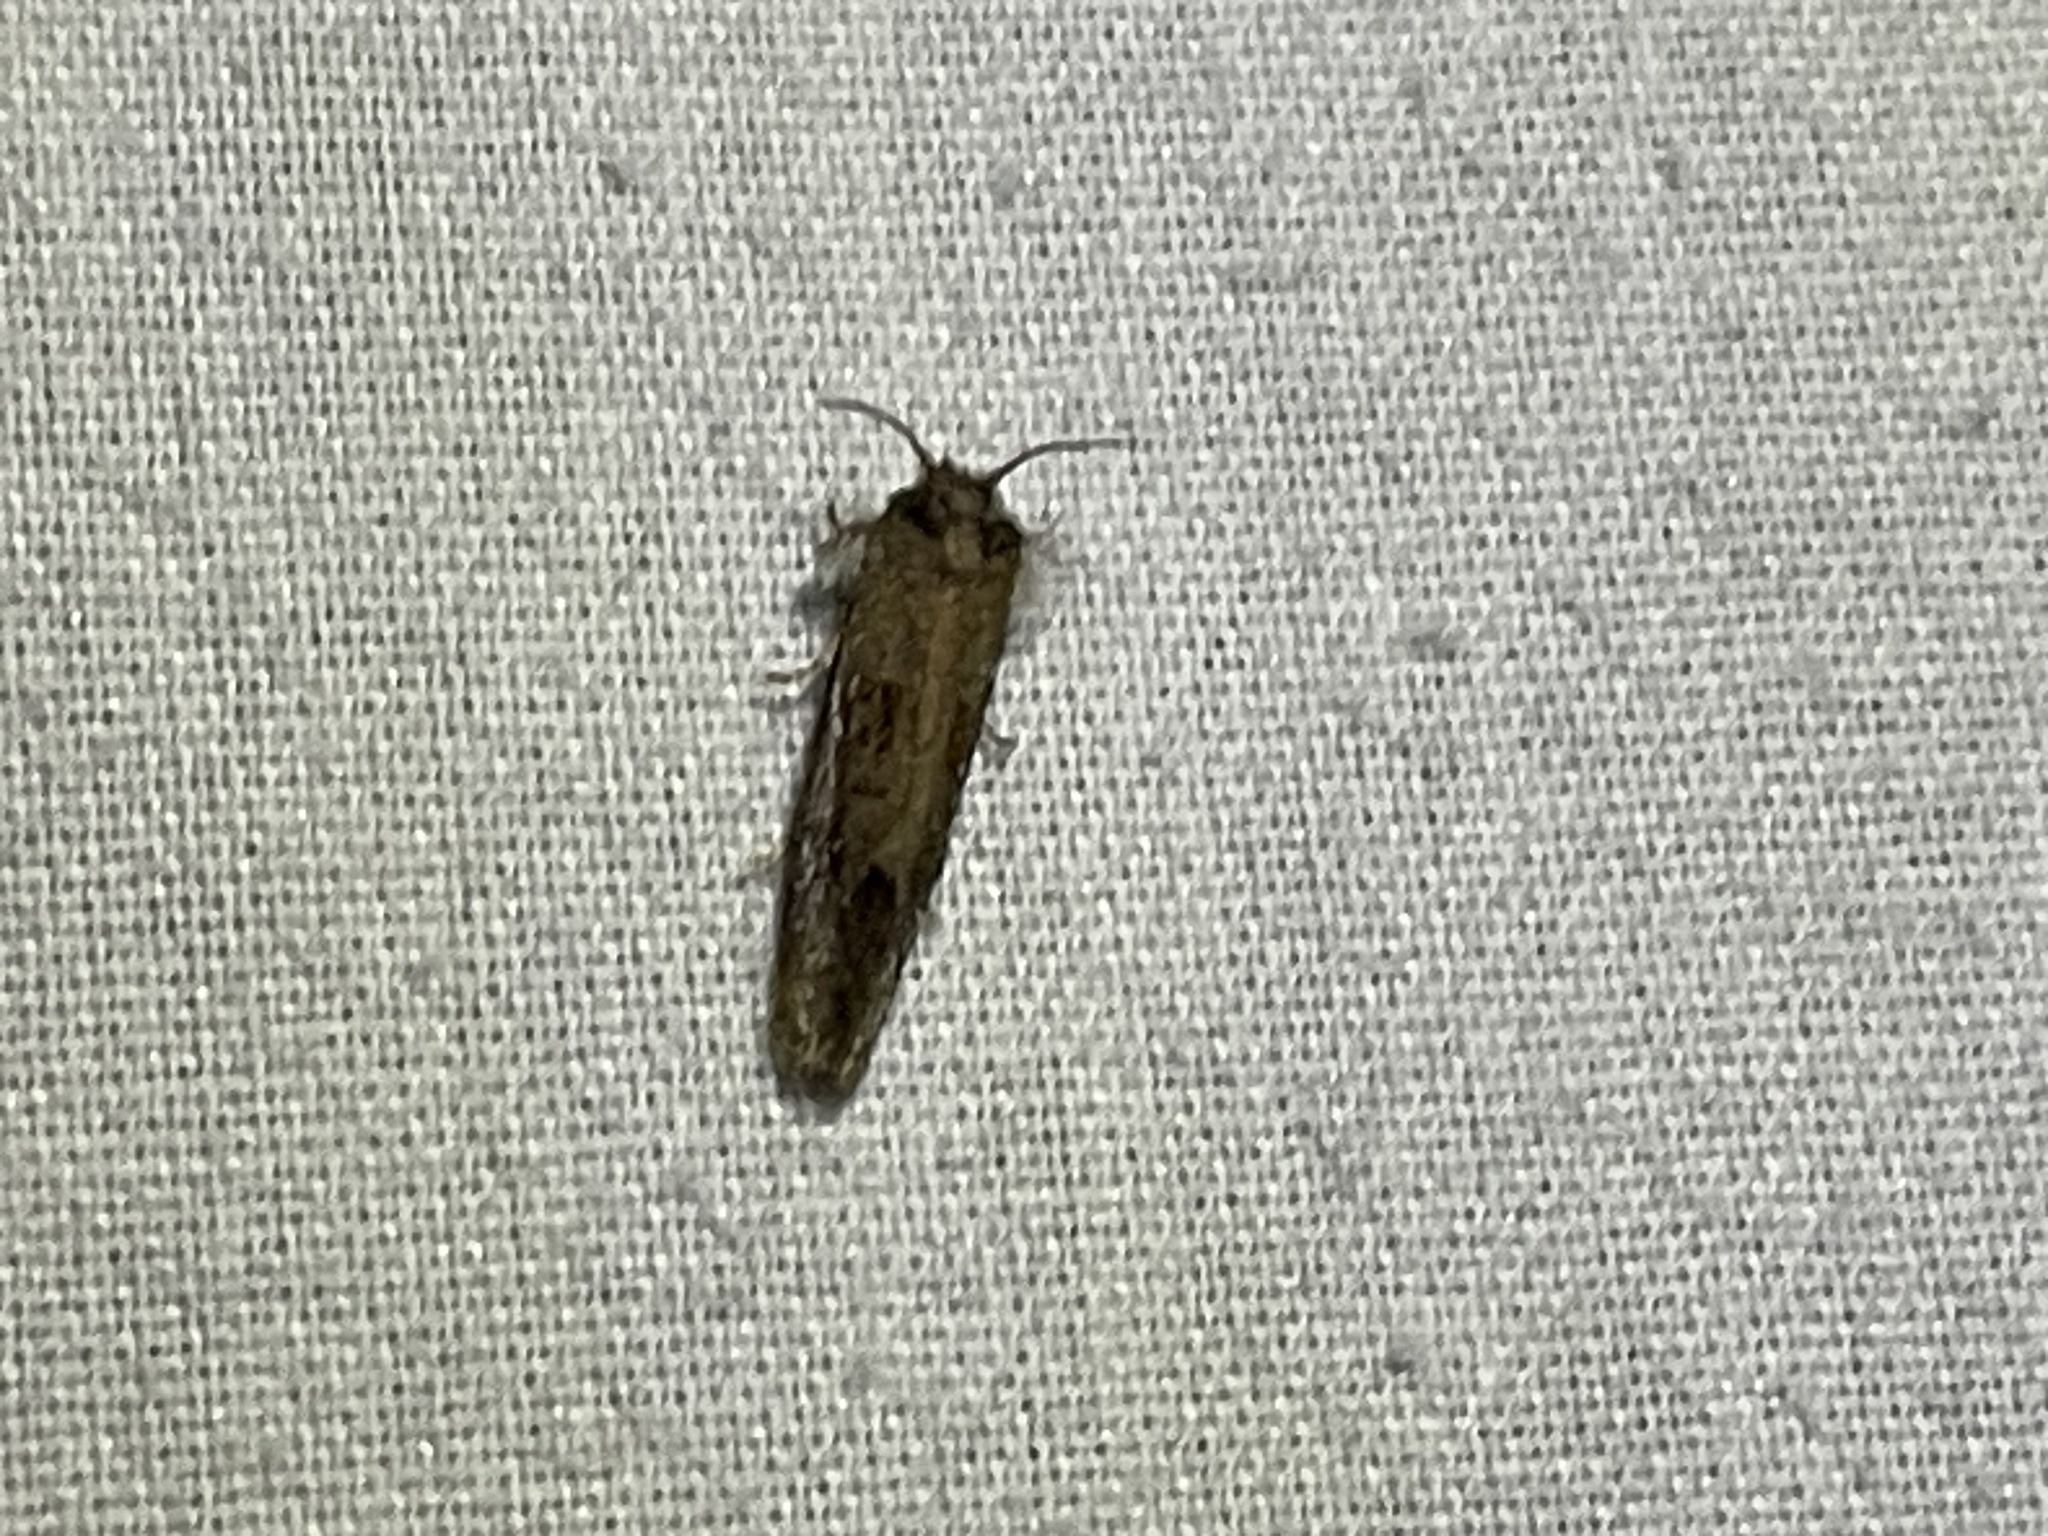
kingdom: Animalia
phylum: Arthropoda
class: Insecta
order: Lepidoptera
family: Tineidae
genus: Acrolophus
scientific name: Acrolophus panamae
